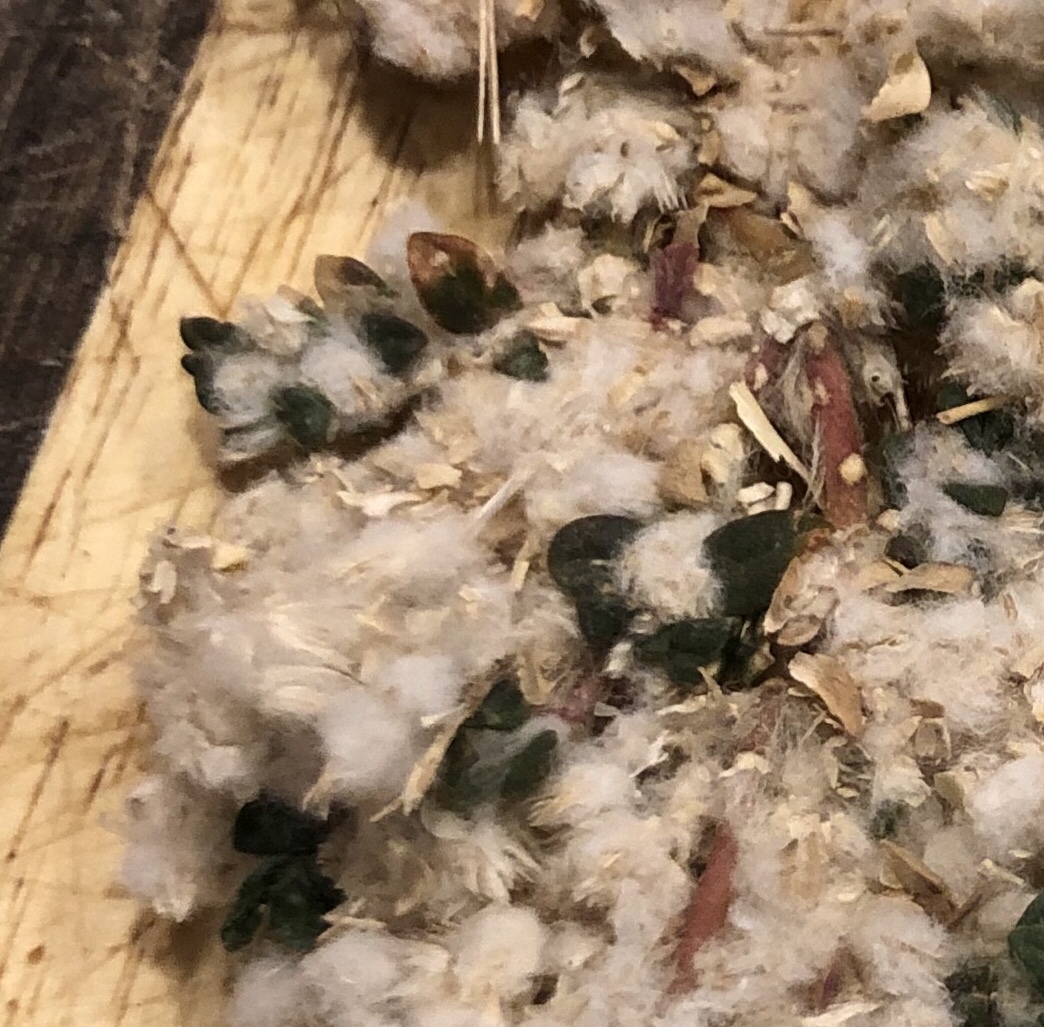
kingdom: Plantae
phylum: Tracheophyta
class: Magnoliopsida
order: Caryophyllales
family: Amaranthaceae
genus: Gomphrena
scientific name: Gomphrena lanuparonychioides
